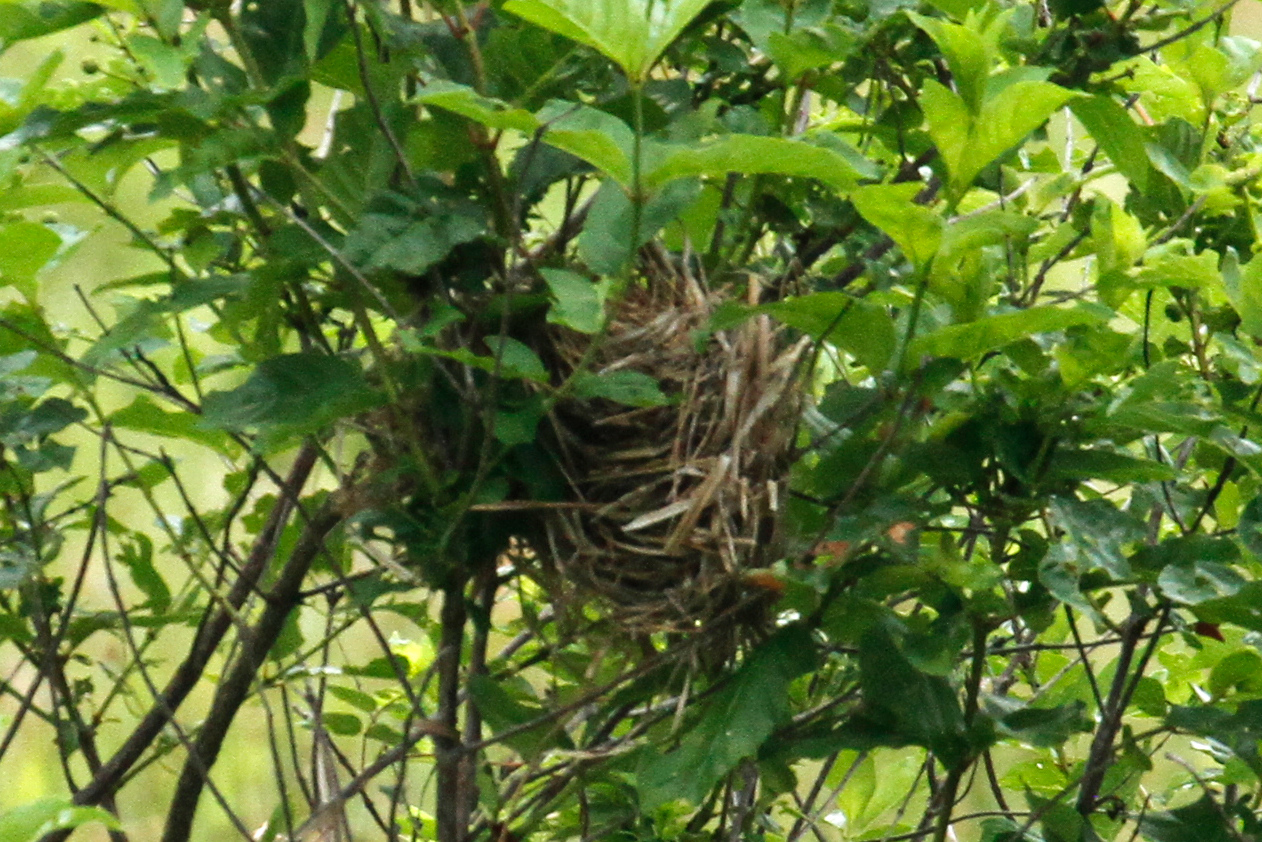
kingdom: Animalia
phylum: Chordata
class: Aves
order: Passeriformes
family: Icteridae
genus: Agelaius
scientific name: Agelaius phoeniceus
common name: Red-winged blackbird
